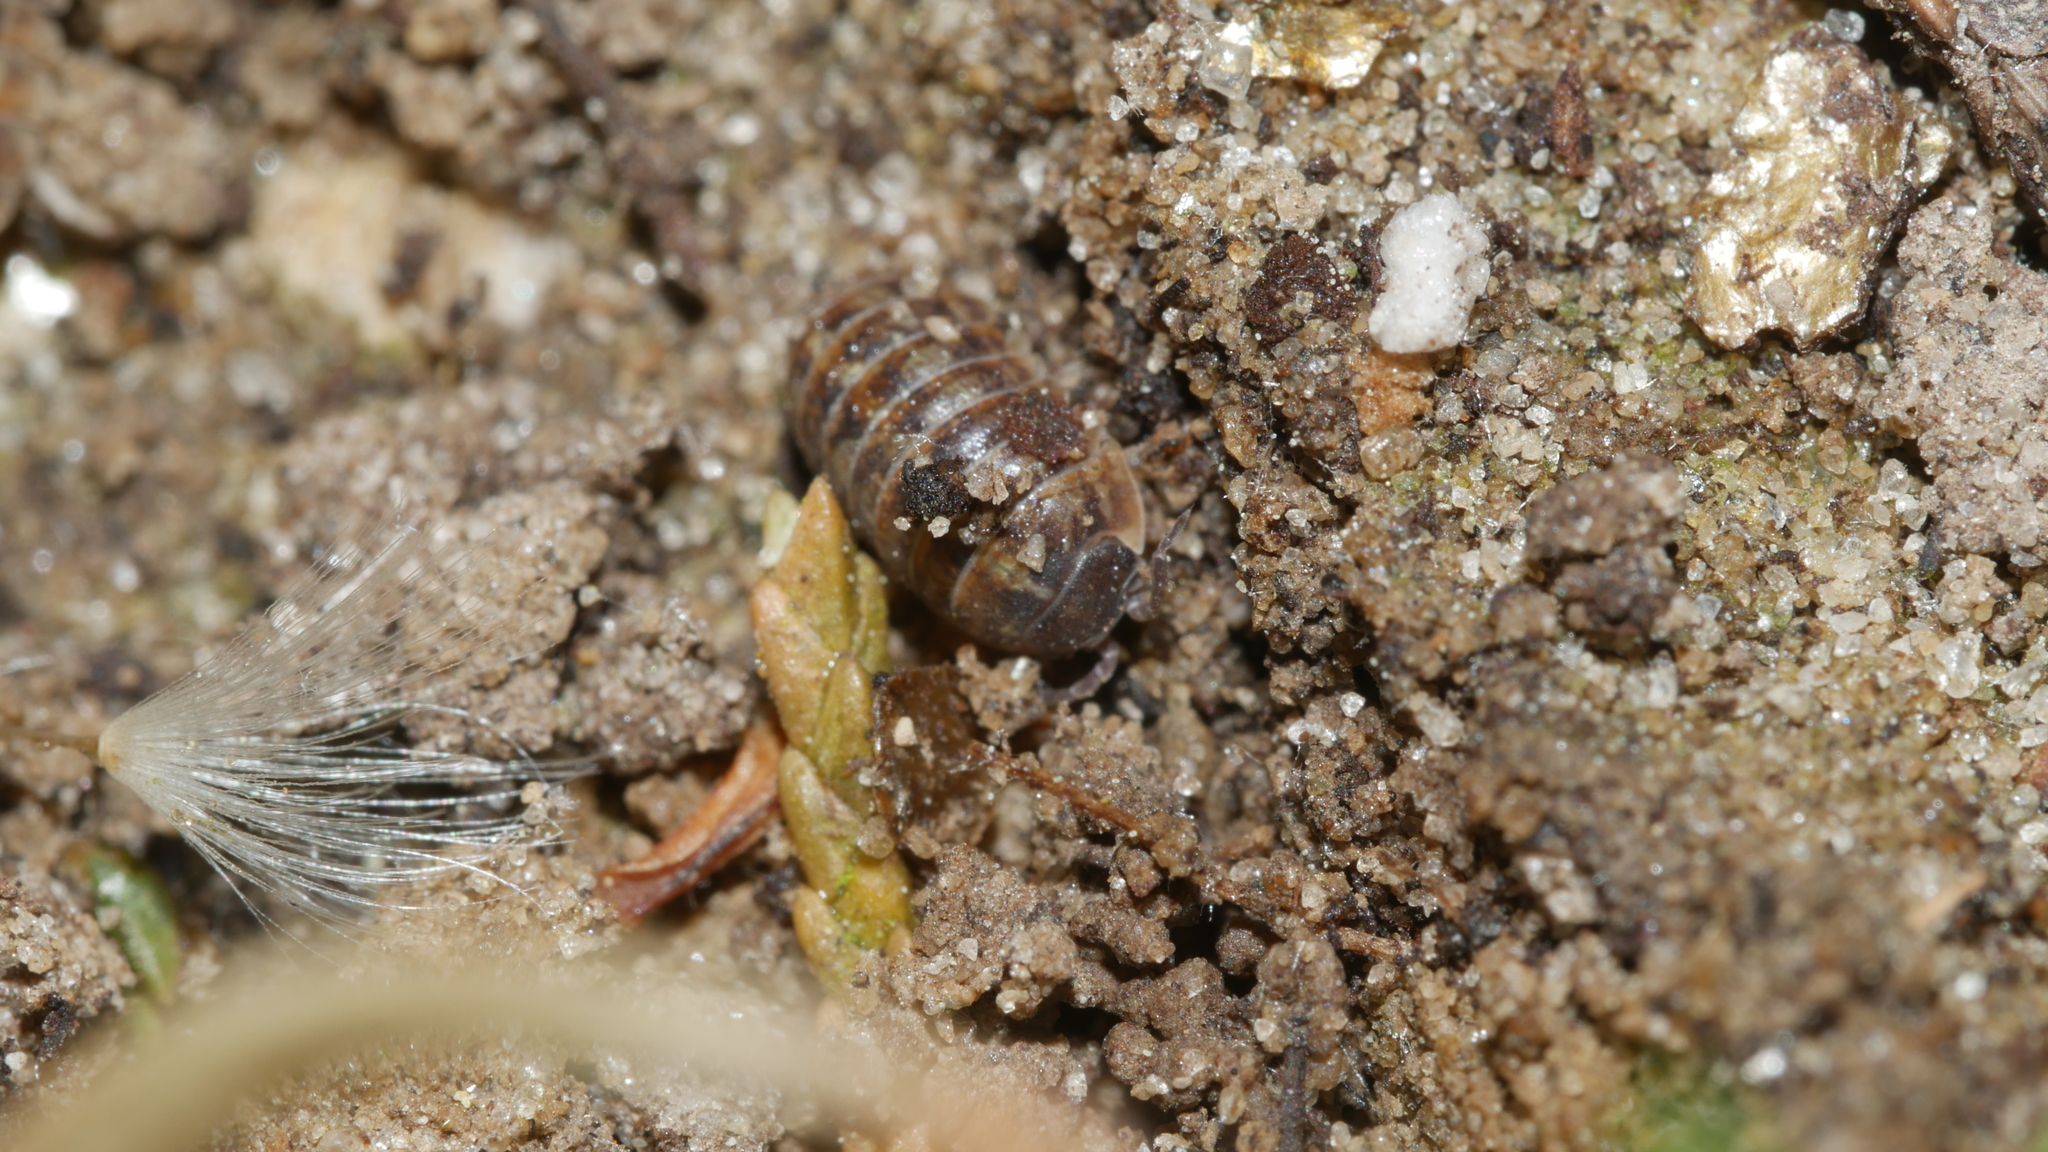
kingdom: Animalia
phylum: Arthropoda
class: Malacostraca
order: Isopoda
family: Armadillidiidae
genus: Armadillidium
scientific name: Armadillidium vulgare
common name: Common pill woodlouse
